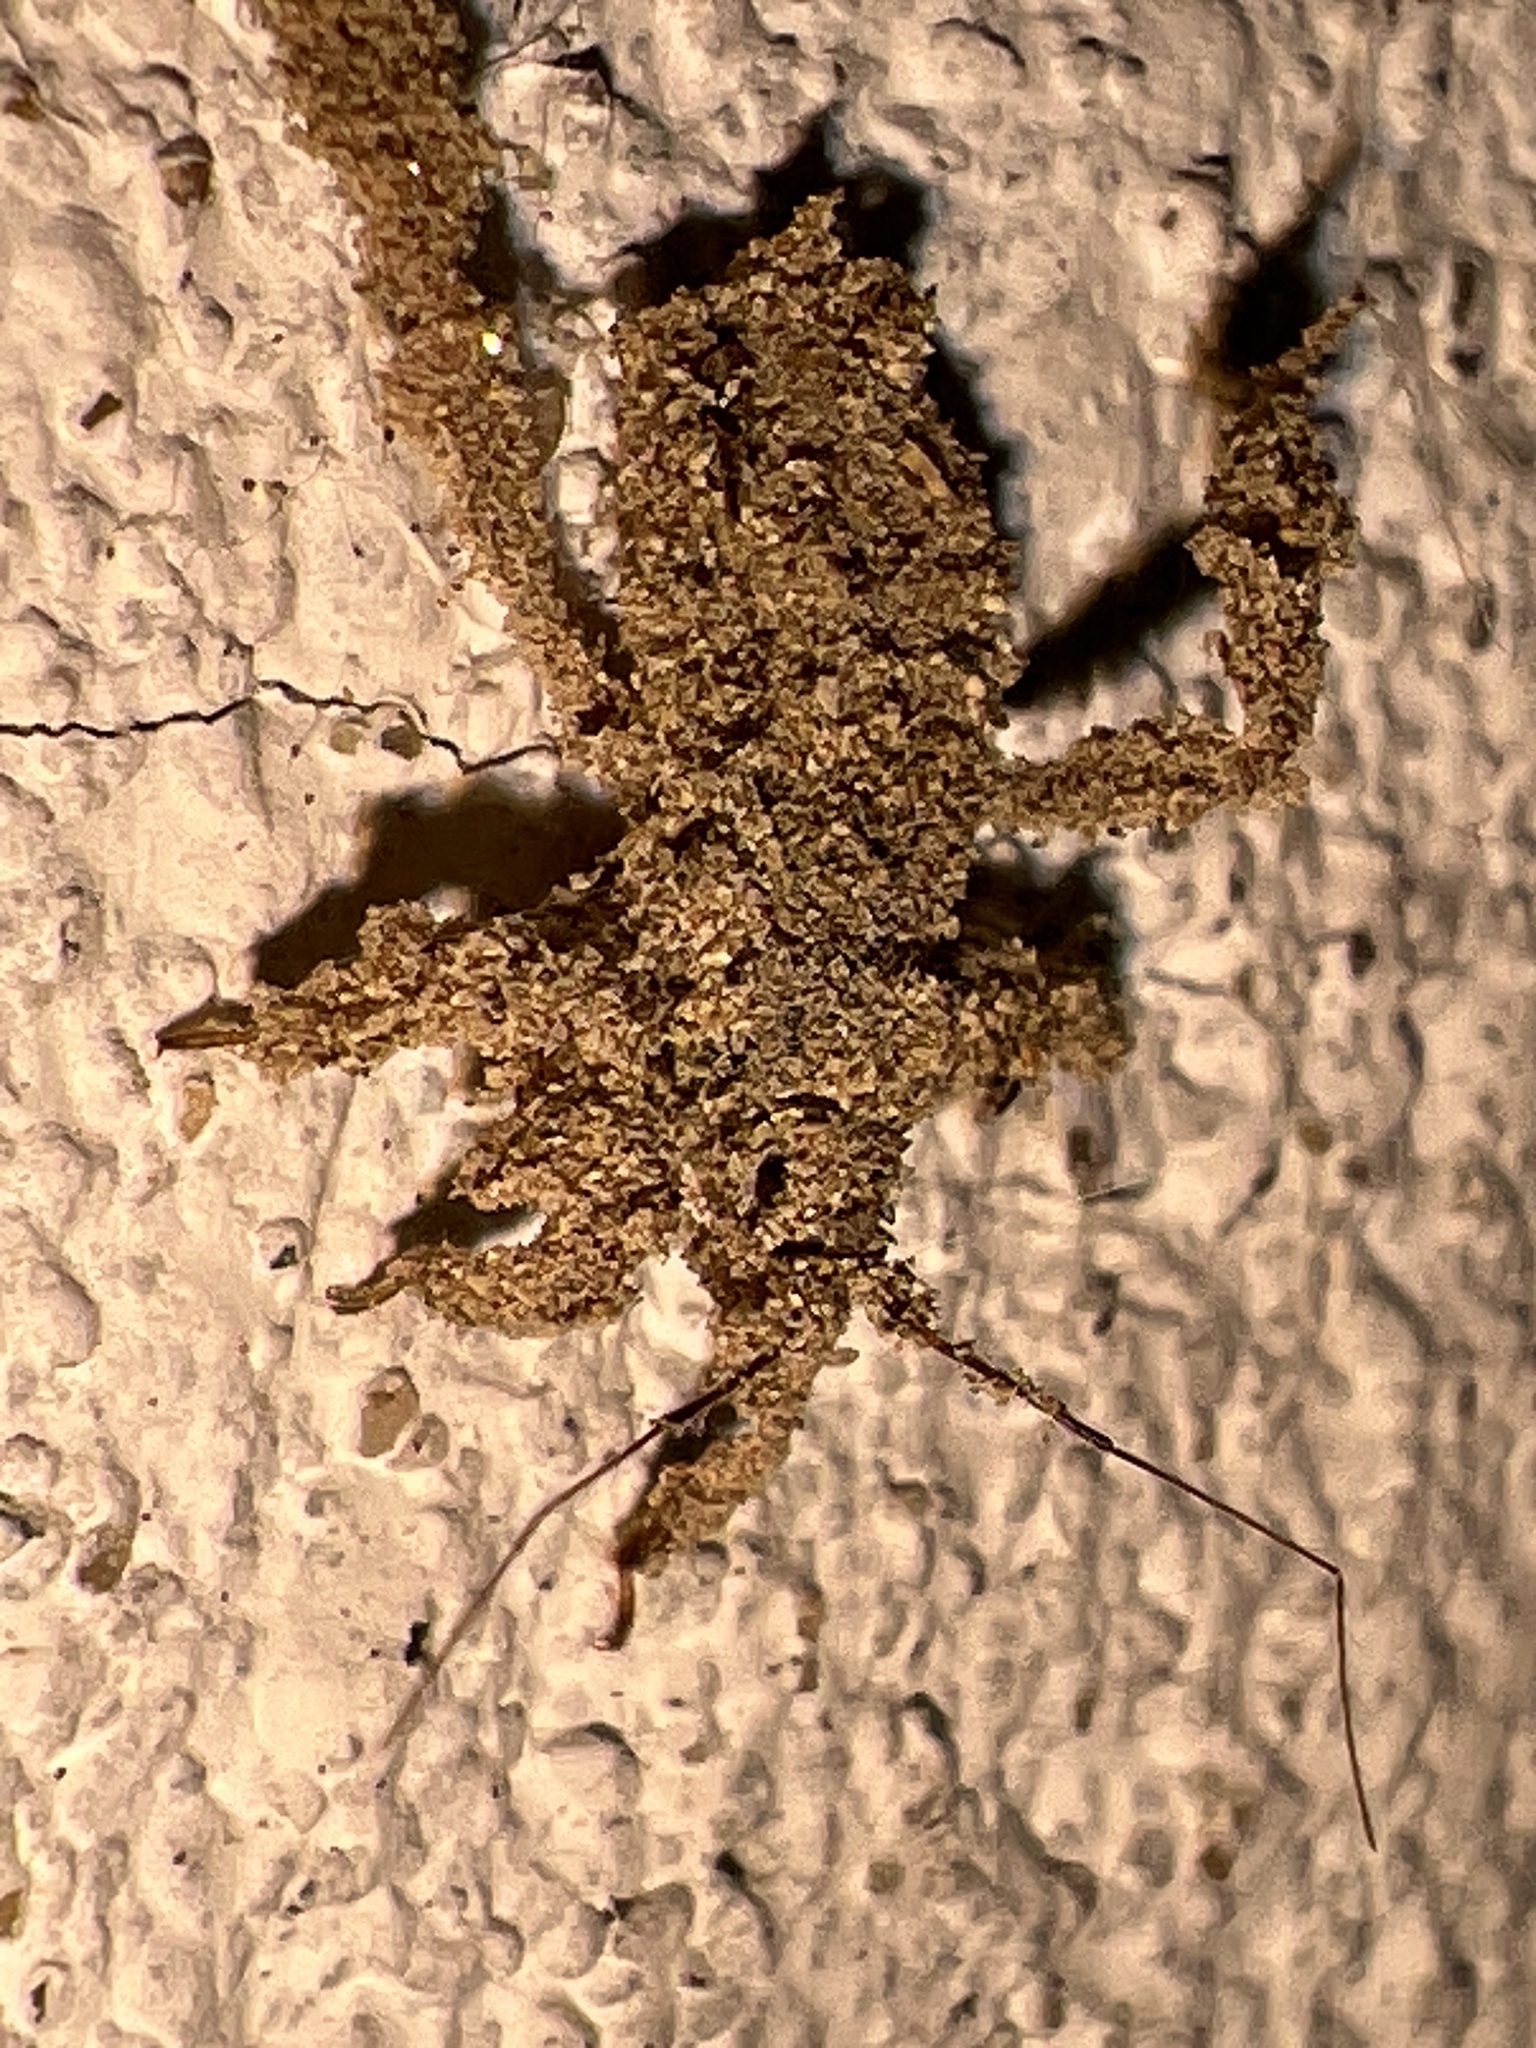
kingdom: Animalia
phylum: Arthropoda
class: Insecta
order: Hemiptera
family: Reduviidae
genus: Reduvius
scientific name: Reduvius personatus
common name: Masked hunter
